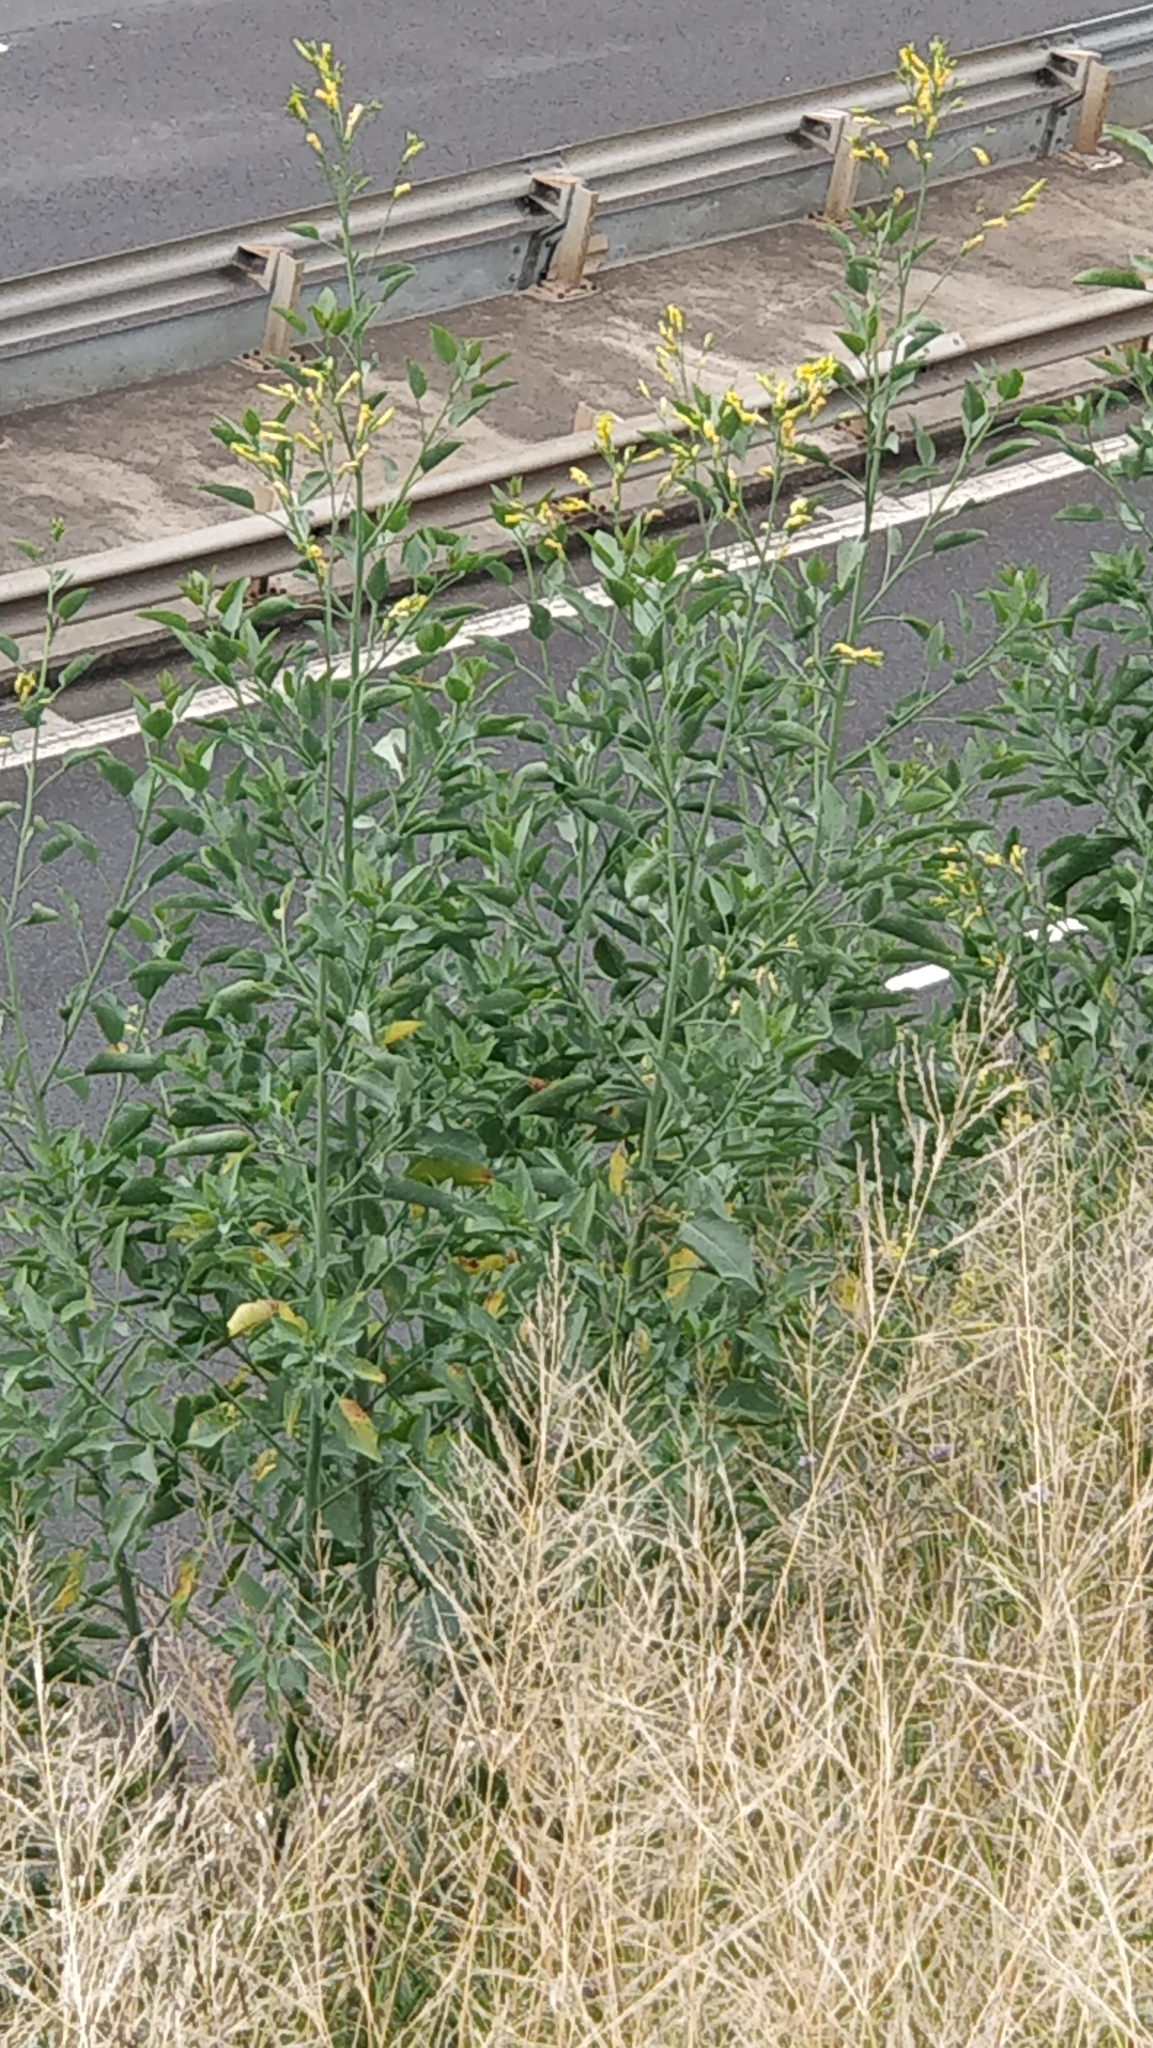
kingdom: Plantae
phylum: Tracheophyta
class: Magnoliopsida
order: Solanales
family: Solanaceae
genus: Nicotiana
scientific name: Nicotiana glauca
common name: Tree tobacco
